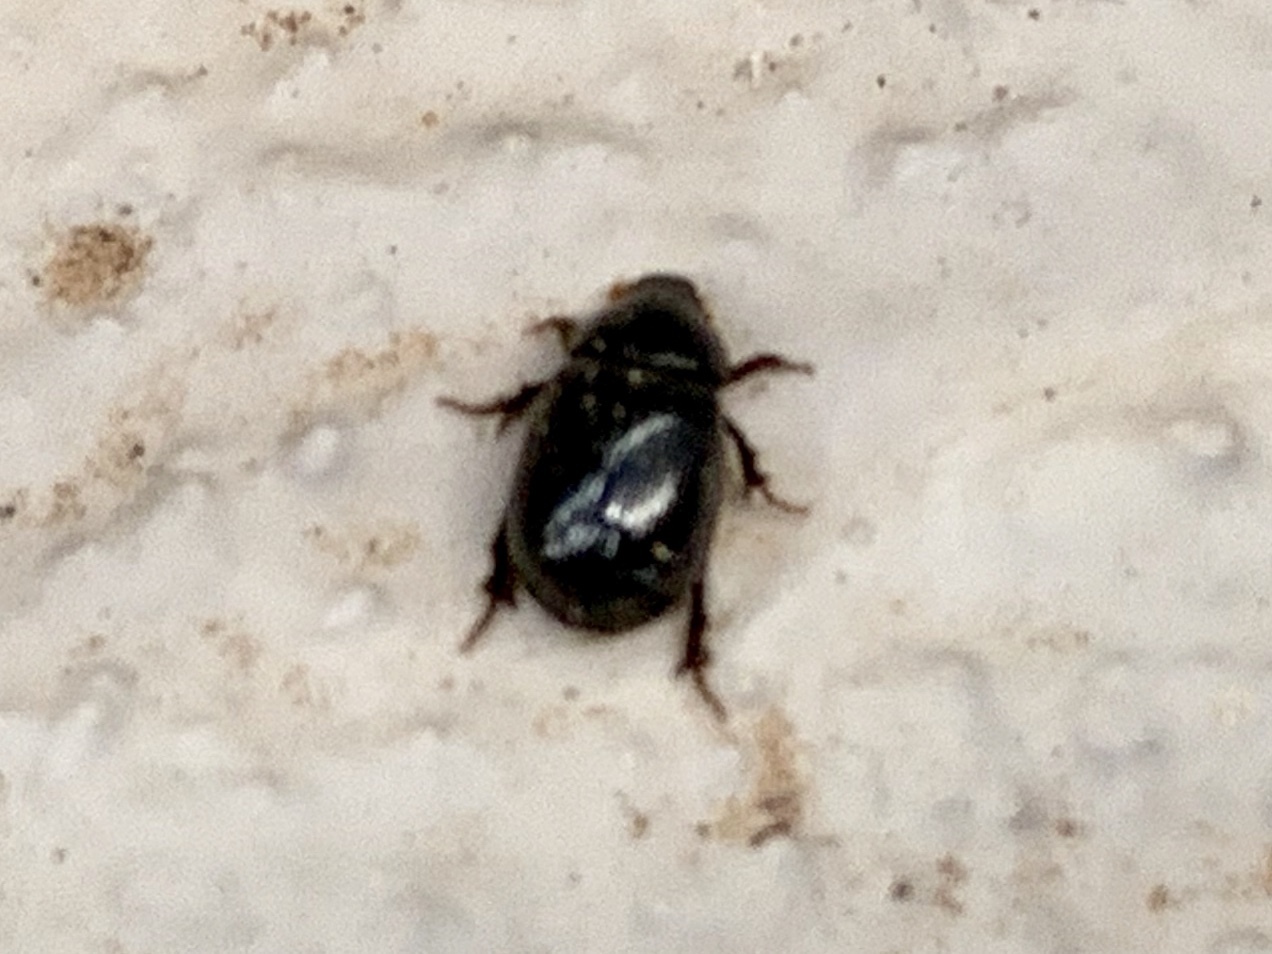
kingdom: Animalia
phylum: Arthropoda
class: Insecta
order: Coleoptera
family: Hybosoridae
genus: Hybosorus
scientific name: Hybosorus illigeri
